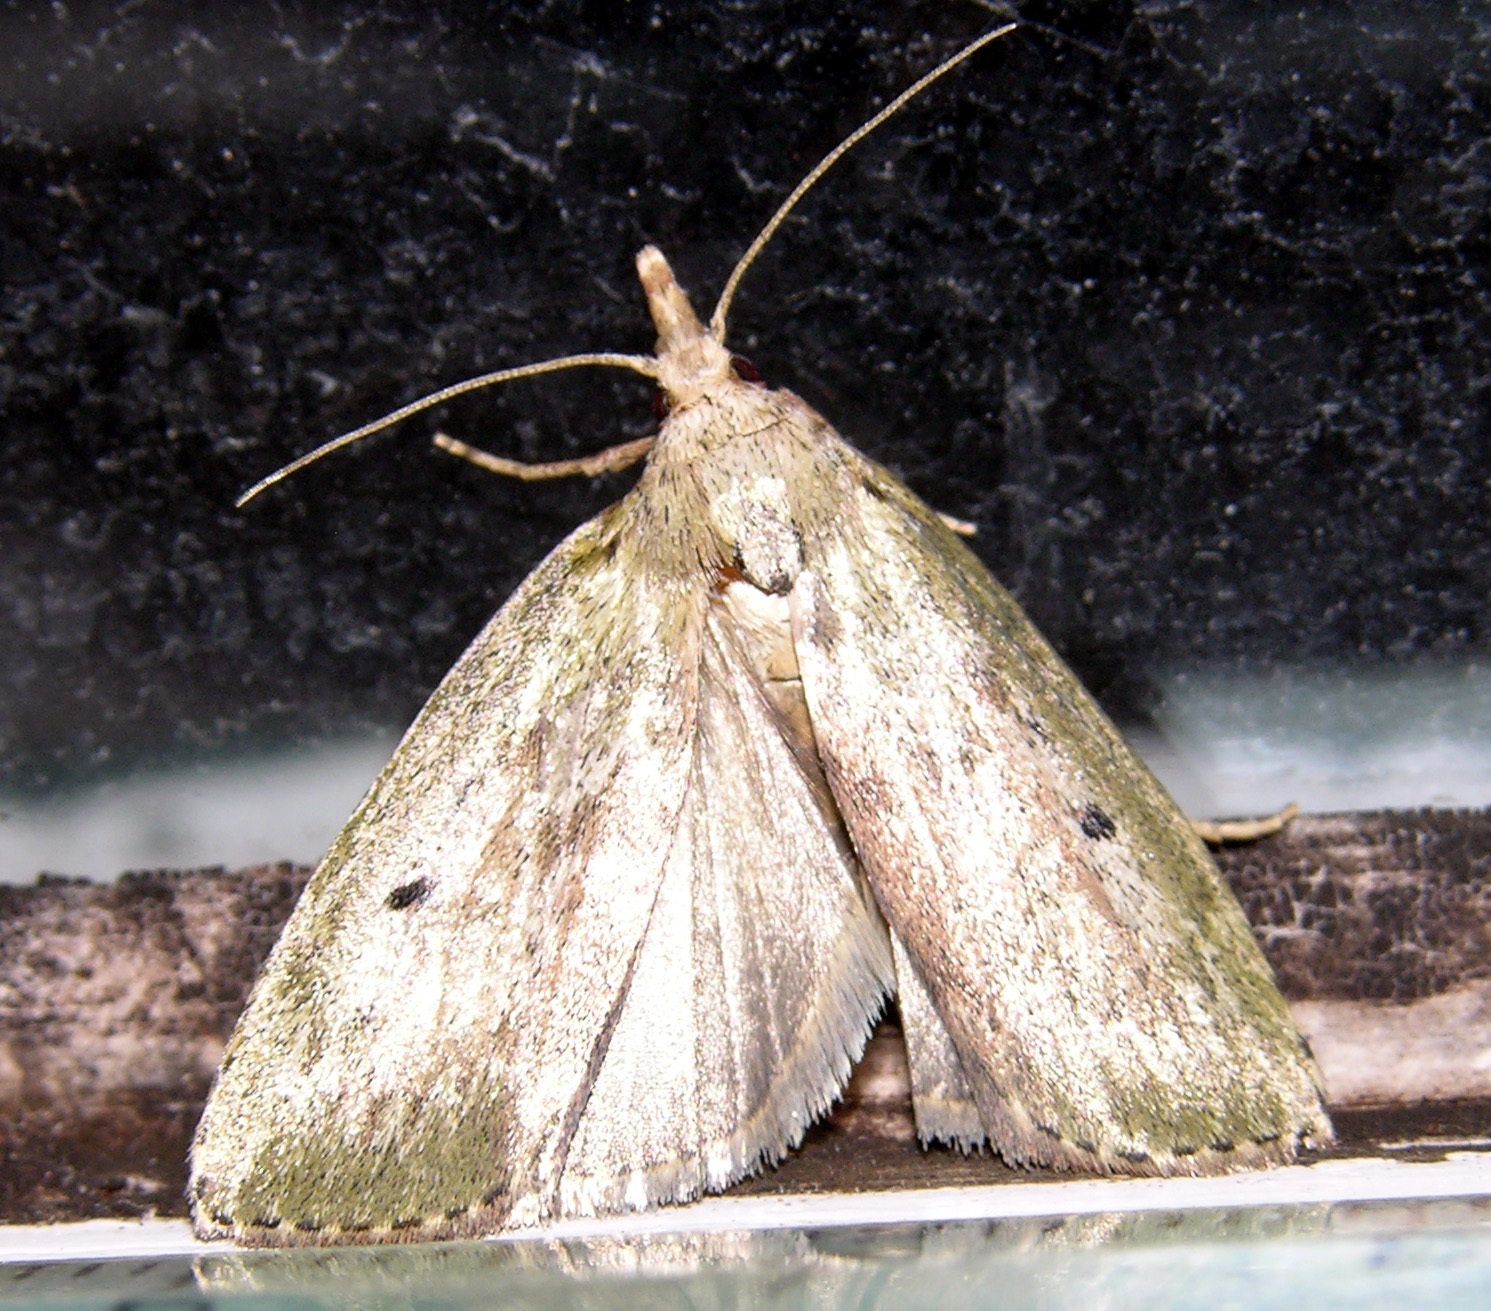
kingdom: Animalia
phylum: Arthropoda
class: Insecta
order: Lepidoptera
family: Pyralidae
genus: Aphomia
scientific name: Aphomia sociella
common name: Bee moth
